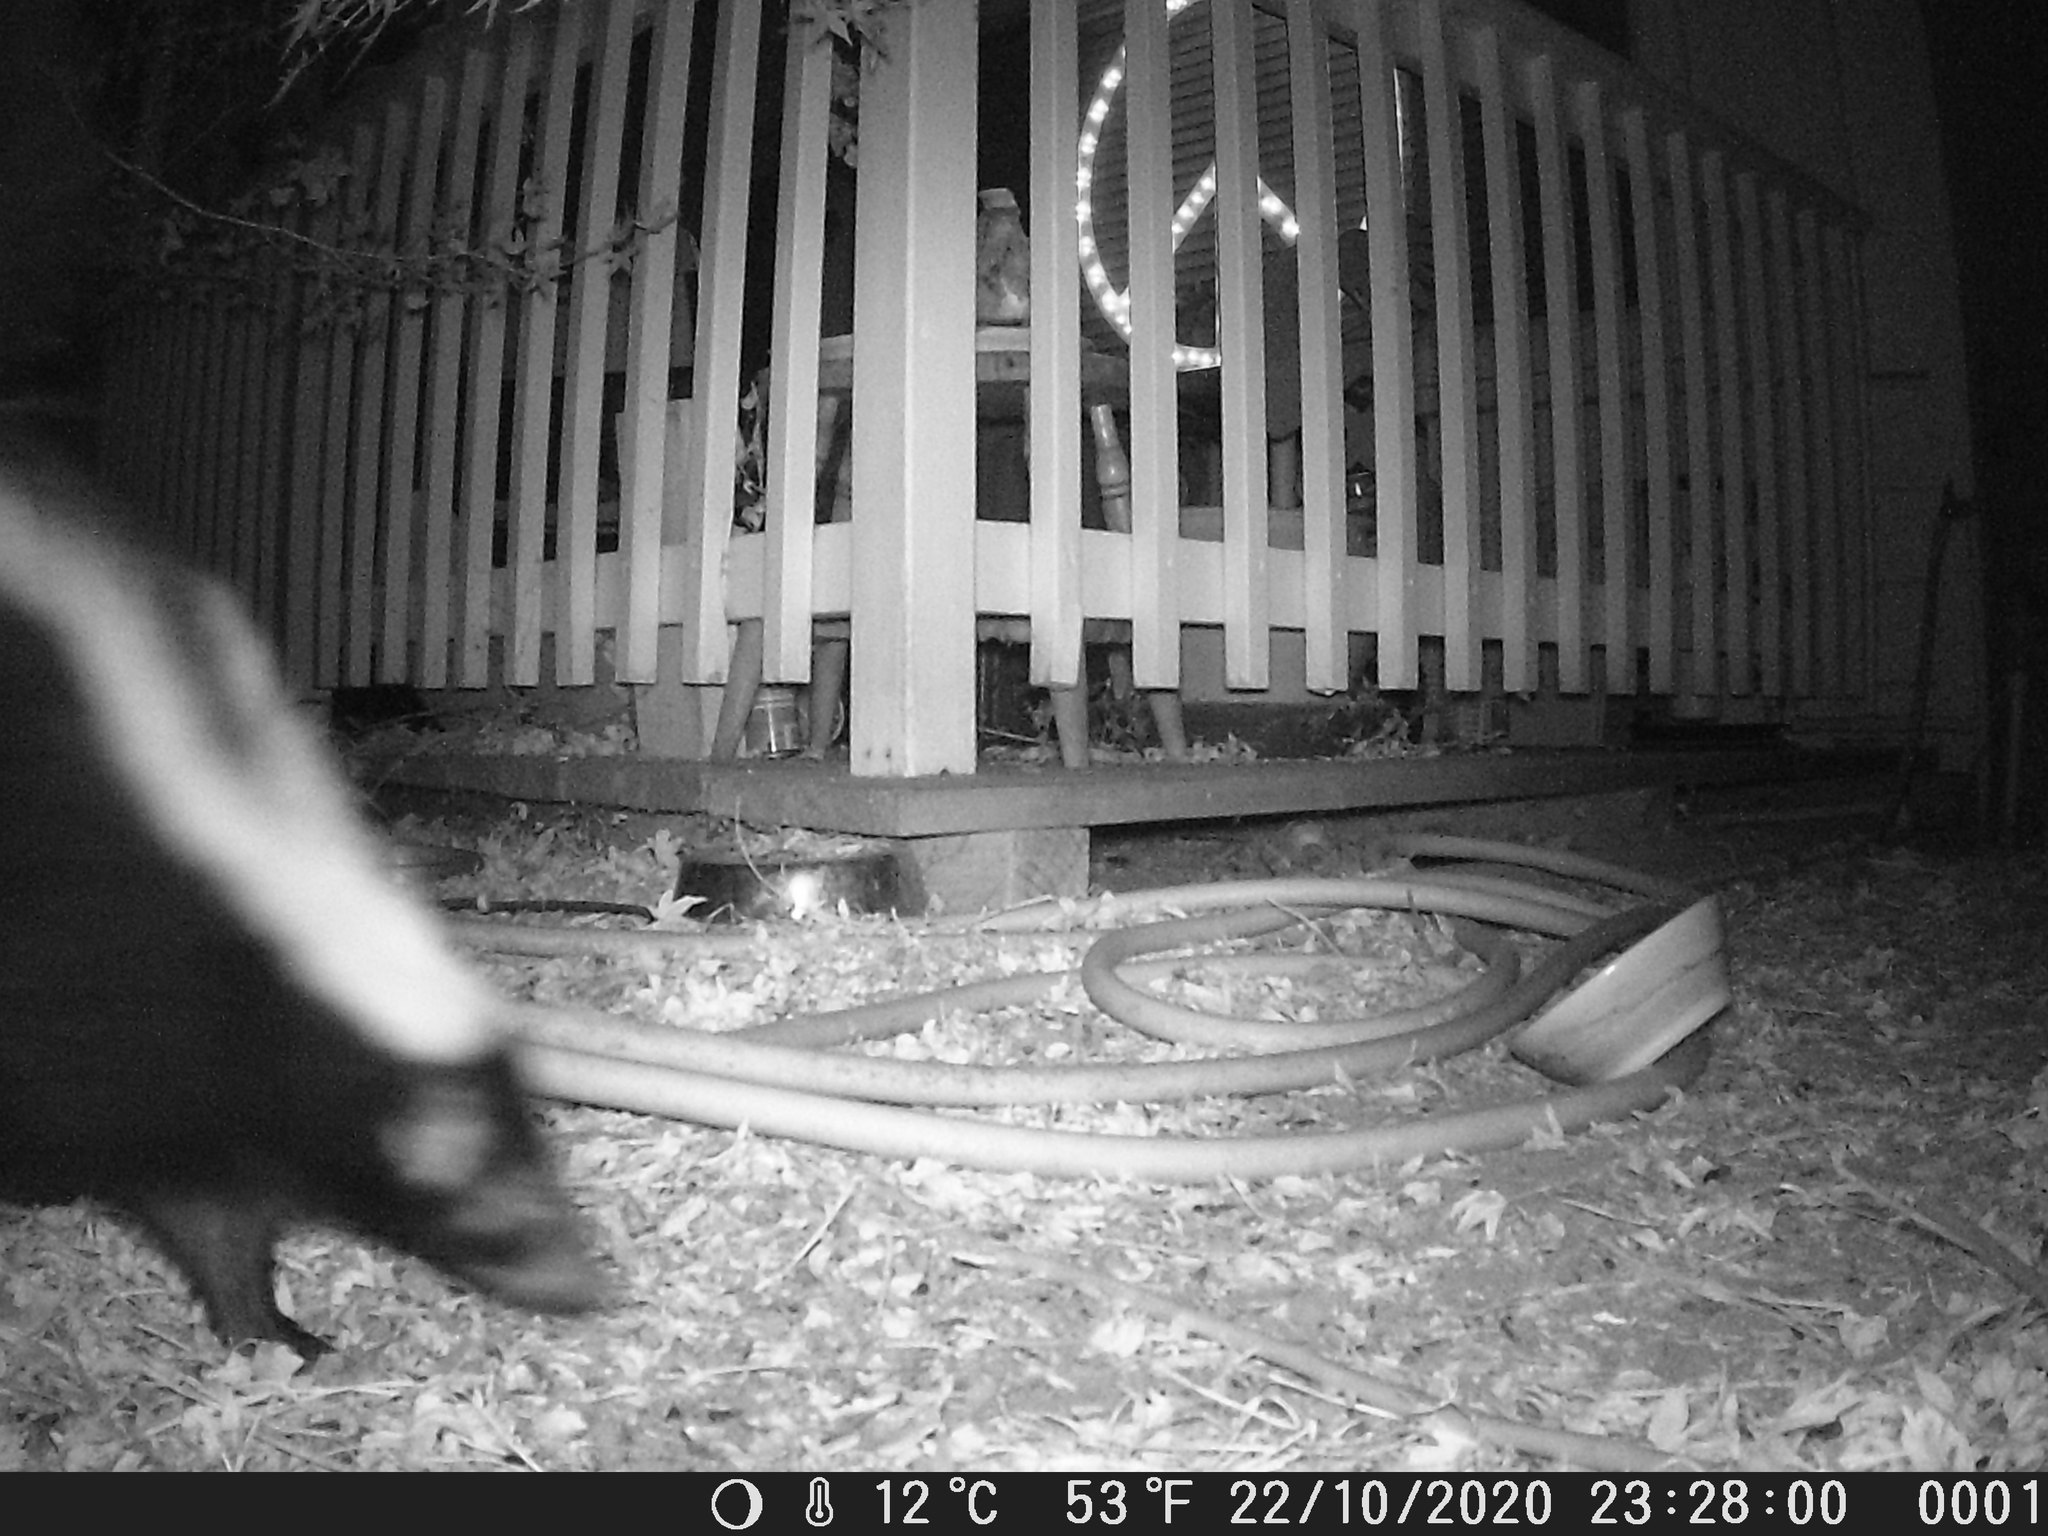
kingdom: Animalia
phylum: Chordata
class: Mammalia
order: Carnivora
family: Mephitidae
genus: Mephitis
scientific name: Mephitis mephitis
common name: Striped skunk
